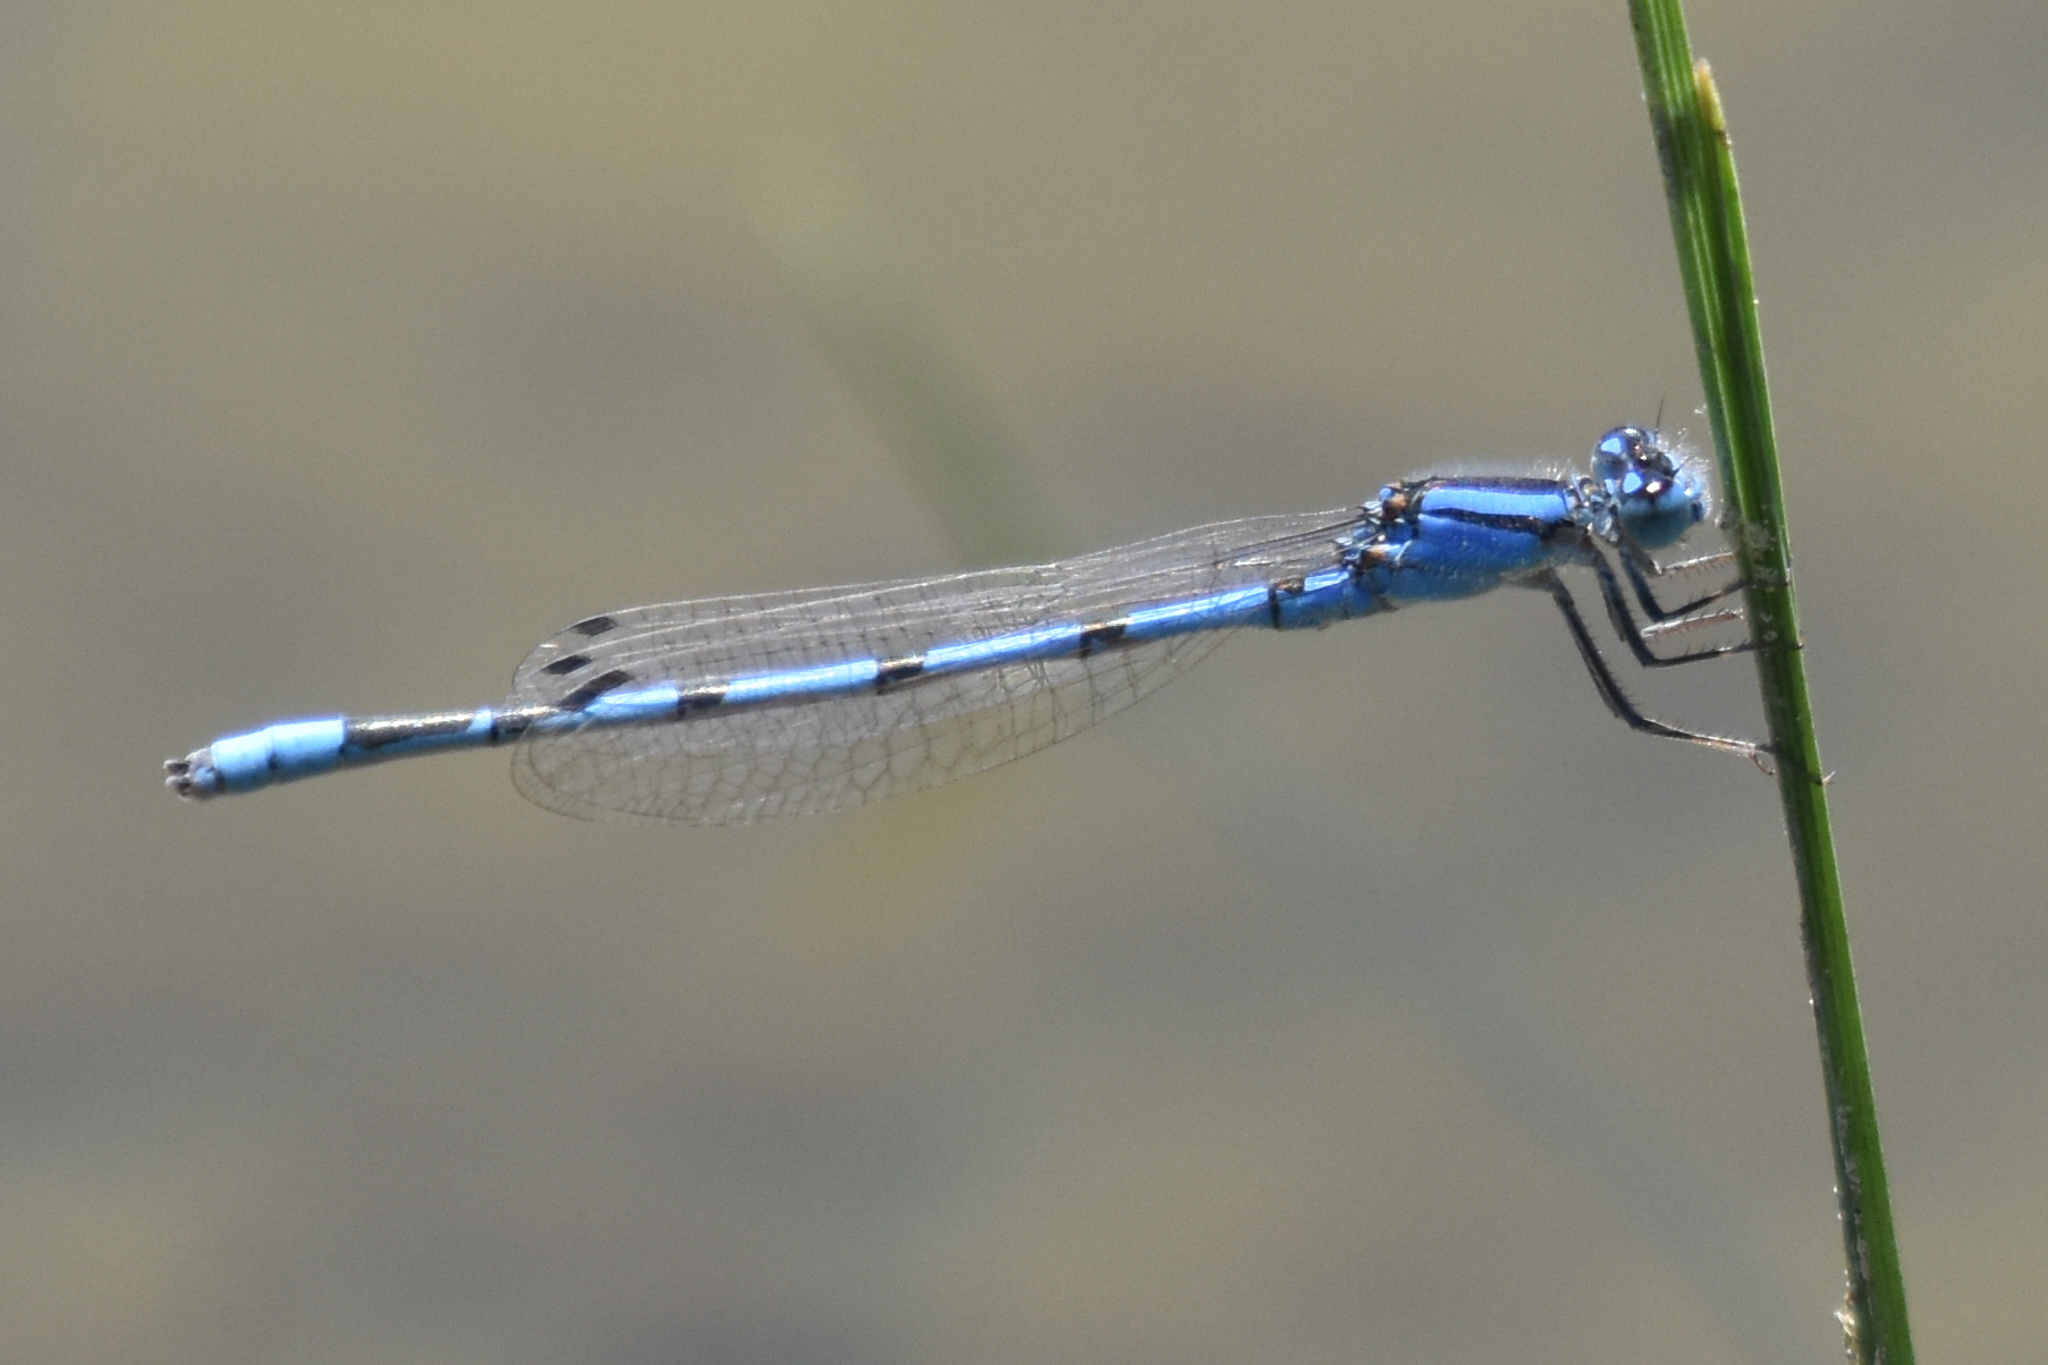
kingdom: Animalia
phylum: Arthropoda
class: Insecta
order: Odonata
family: Coenagrionidae
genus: Enallagma
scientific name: Enallagma civile
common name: Damselfly
